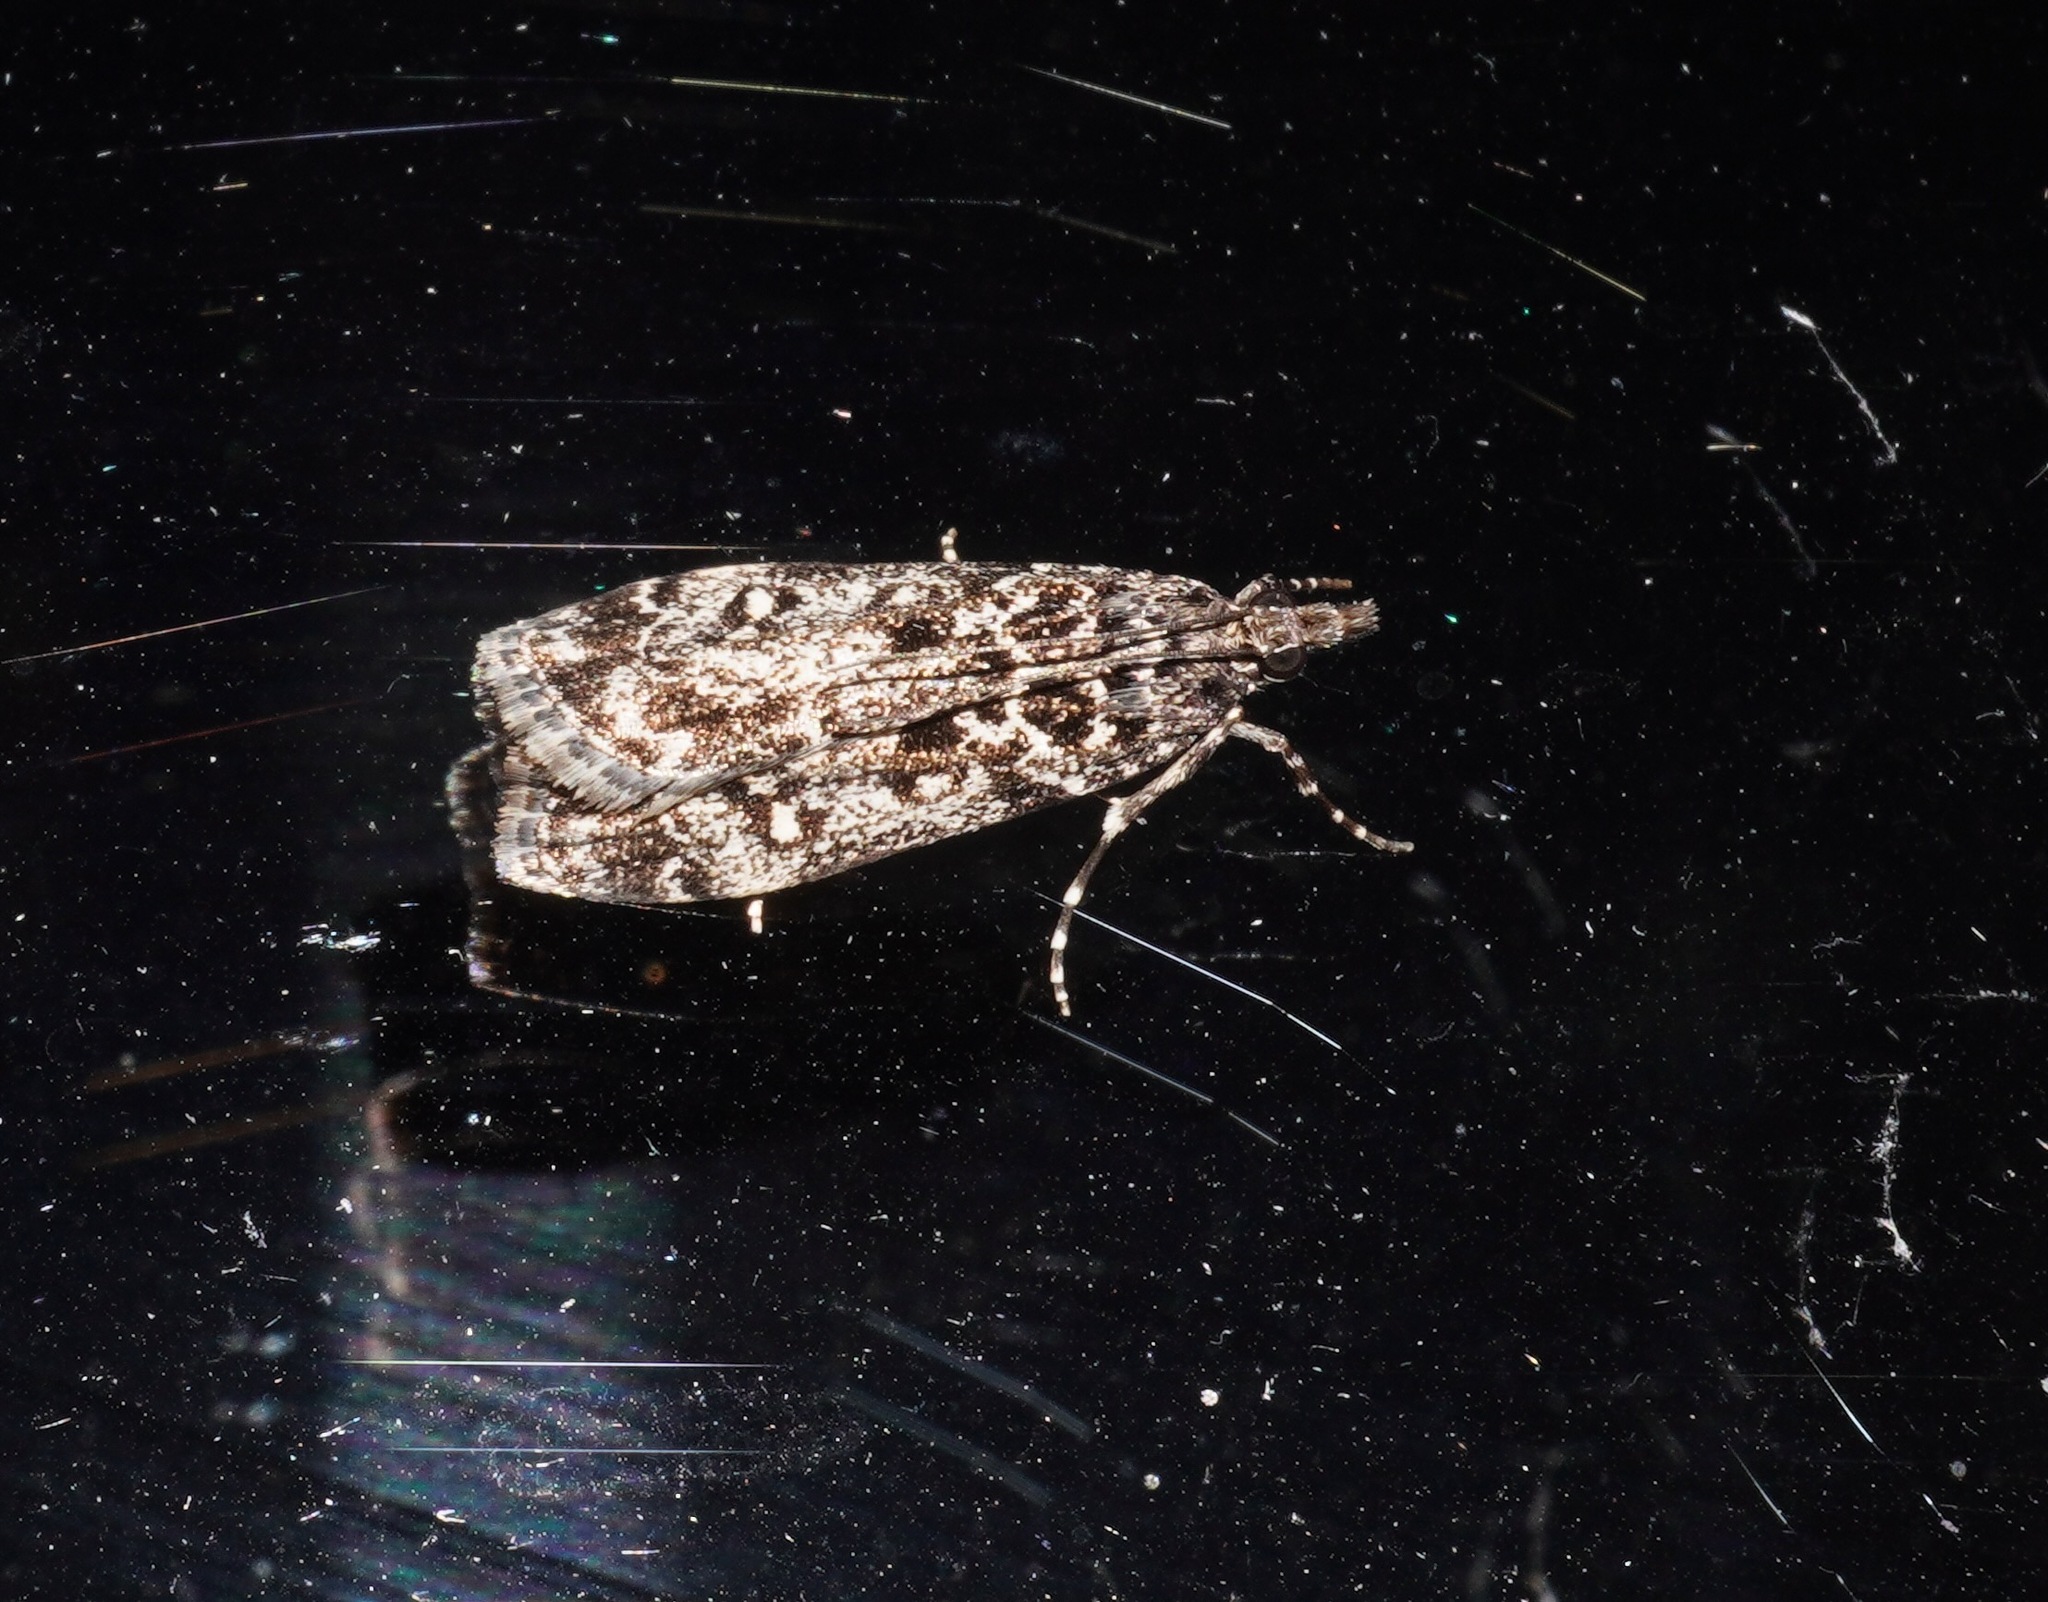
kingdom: Animalia
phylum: Arthropoda
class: Insecta
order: Lepidoptera
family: Crambidae
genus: Eudonia
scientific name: Eudonia philerga
